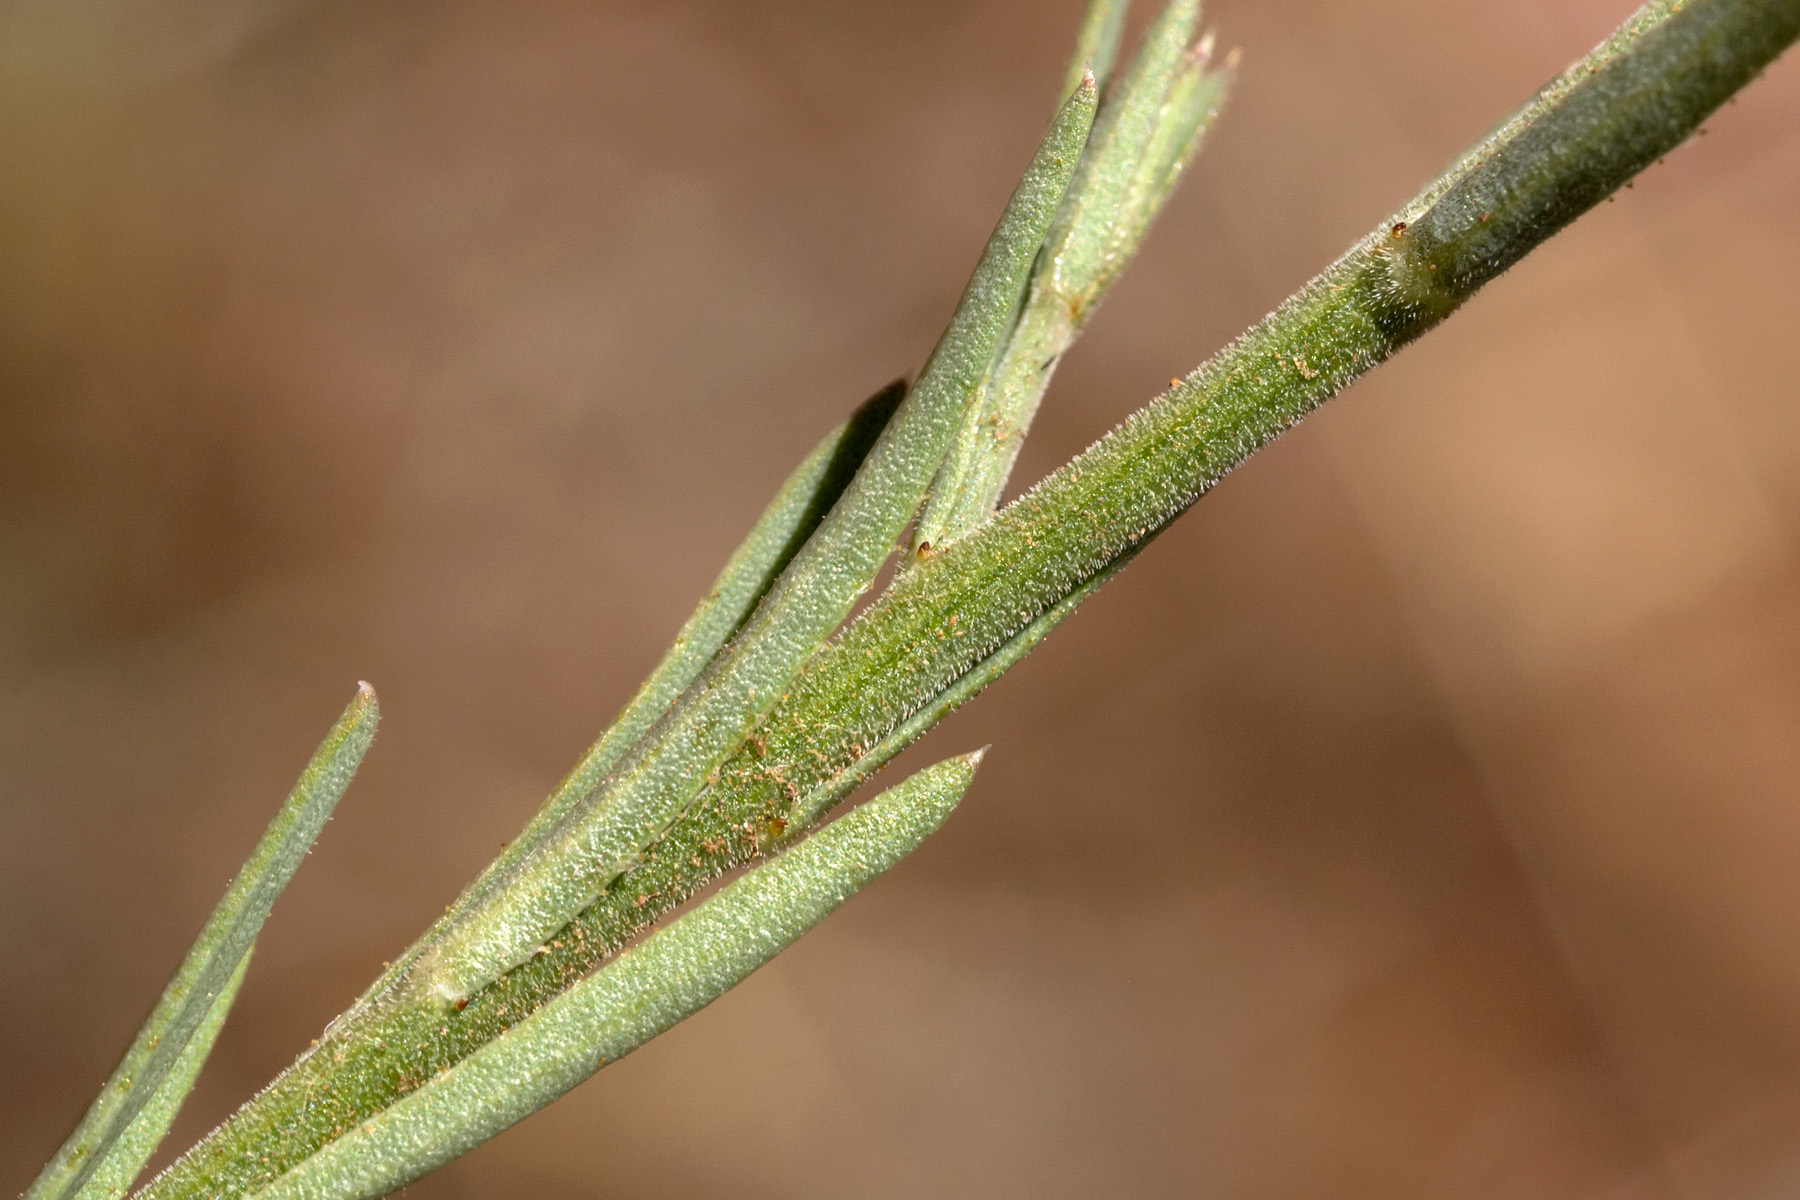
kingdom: Plantae
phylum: Tracheophyta
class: Magnoliopsida
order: Malpighiales
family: Linaceae
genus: Linum
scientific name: Linum puberulum
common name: Plains flax
